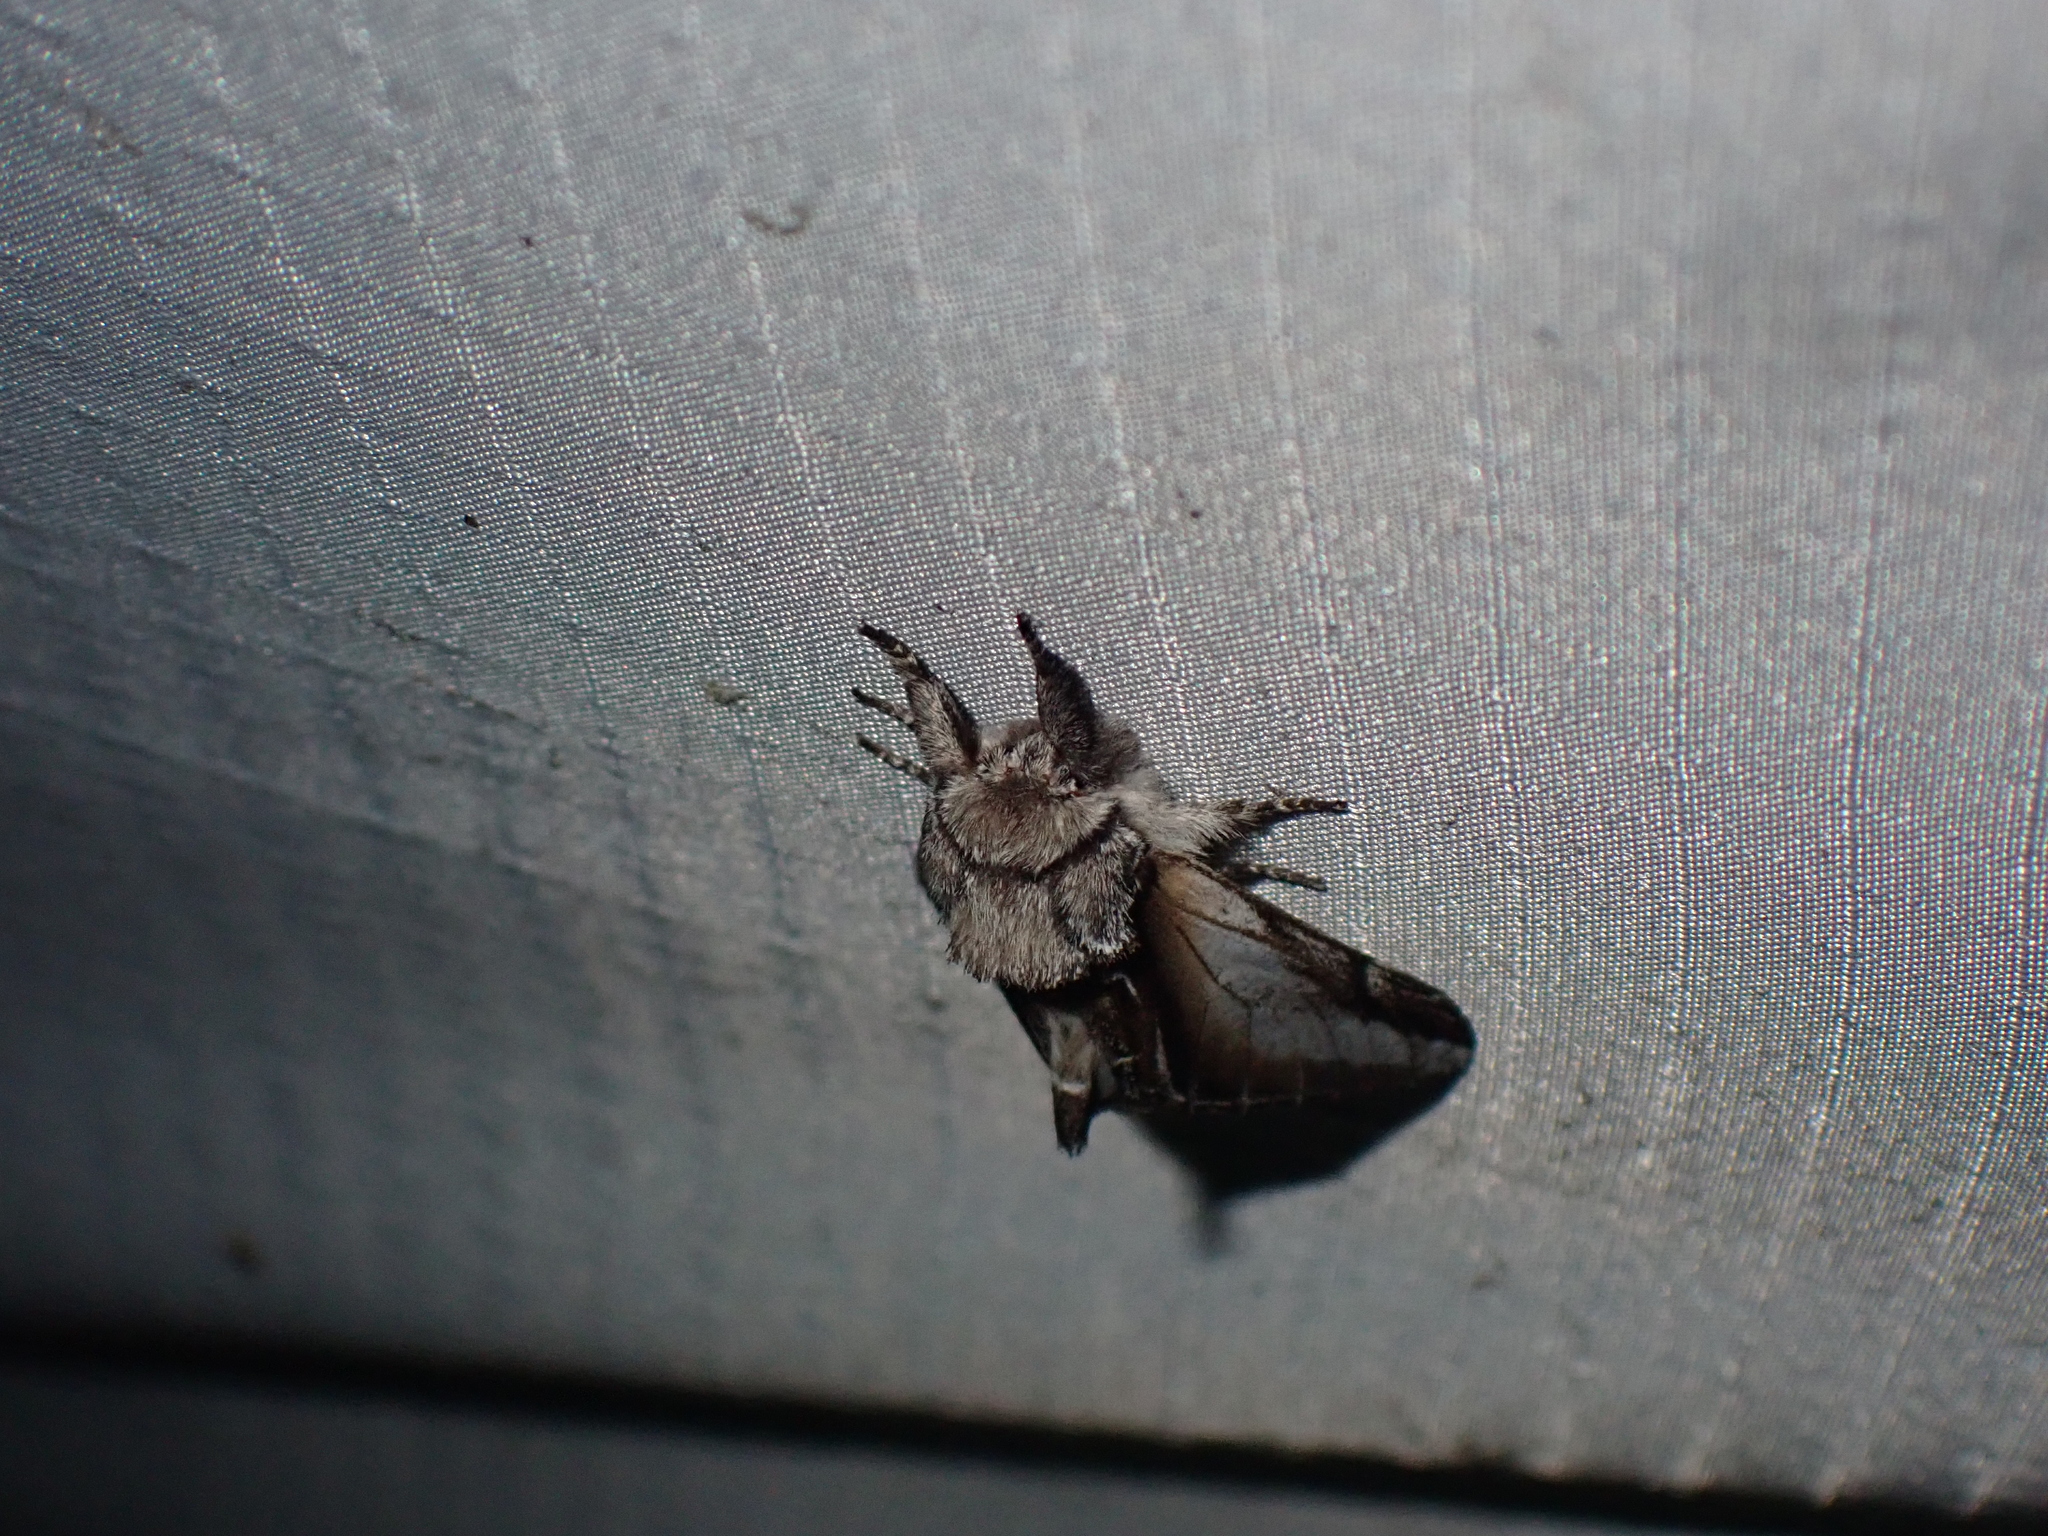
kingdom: Animalia
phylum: Arthropoda
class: Insecta
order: Lepidoptera
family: Notodontidae
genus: Pheosia
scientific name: Pheosia rimosa
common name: Black-rimmed prominent
